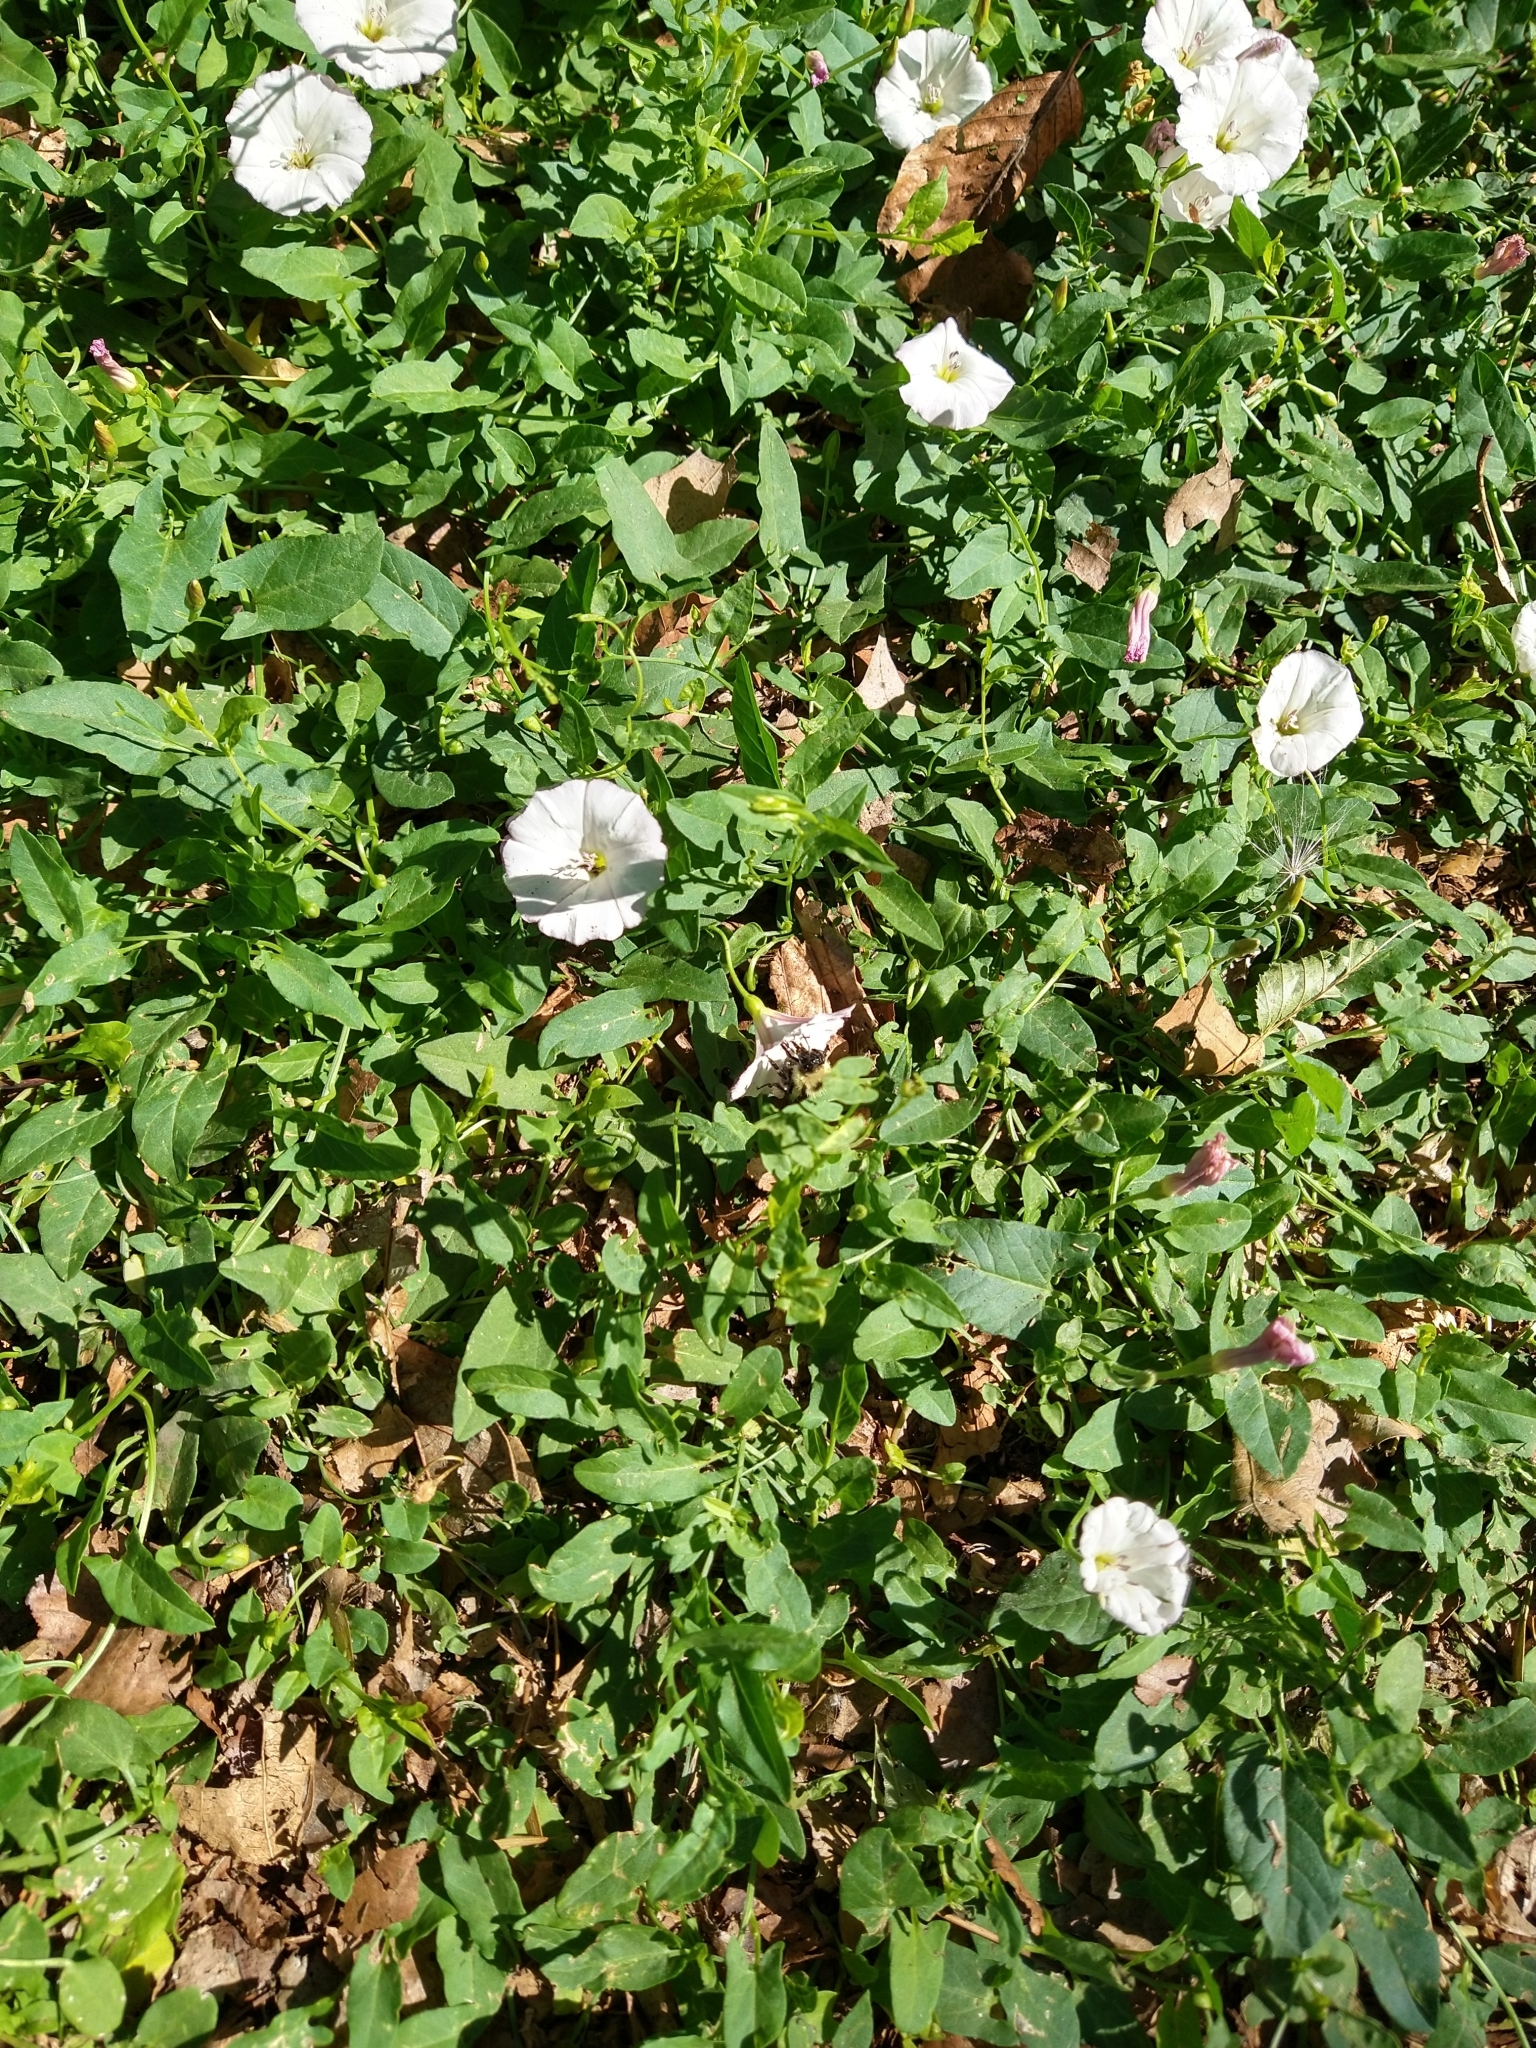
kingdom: Animalia
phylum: Arthropoda
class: Insecta
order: Hymenoptera
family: Apidae
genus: Bombus
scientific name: Bombus vagans
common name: Half-black bumble bee
